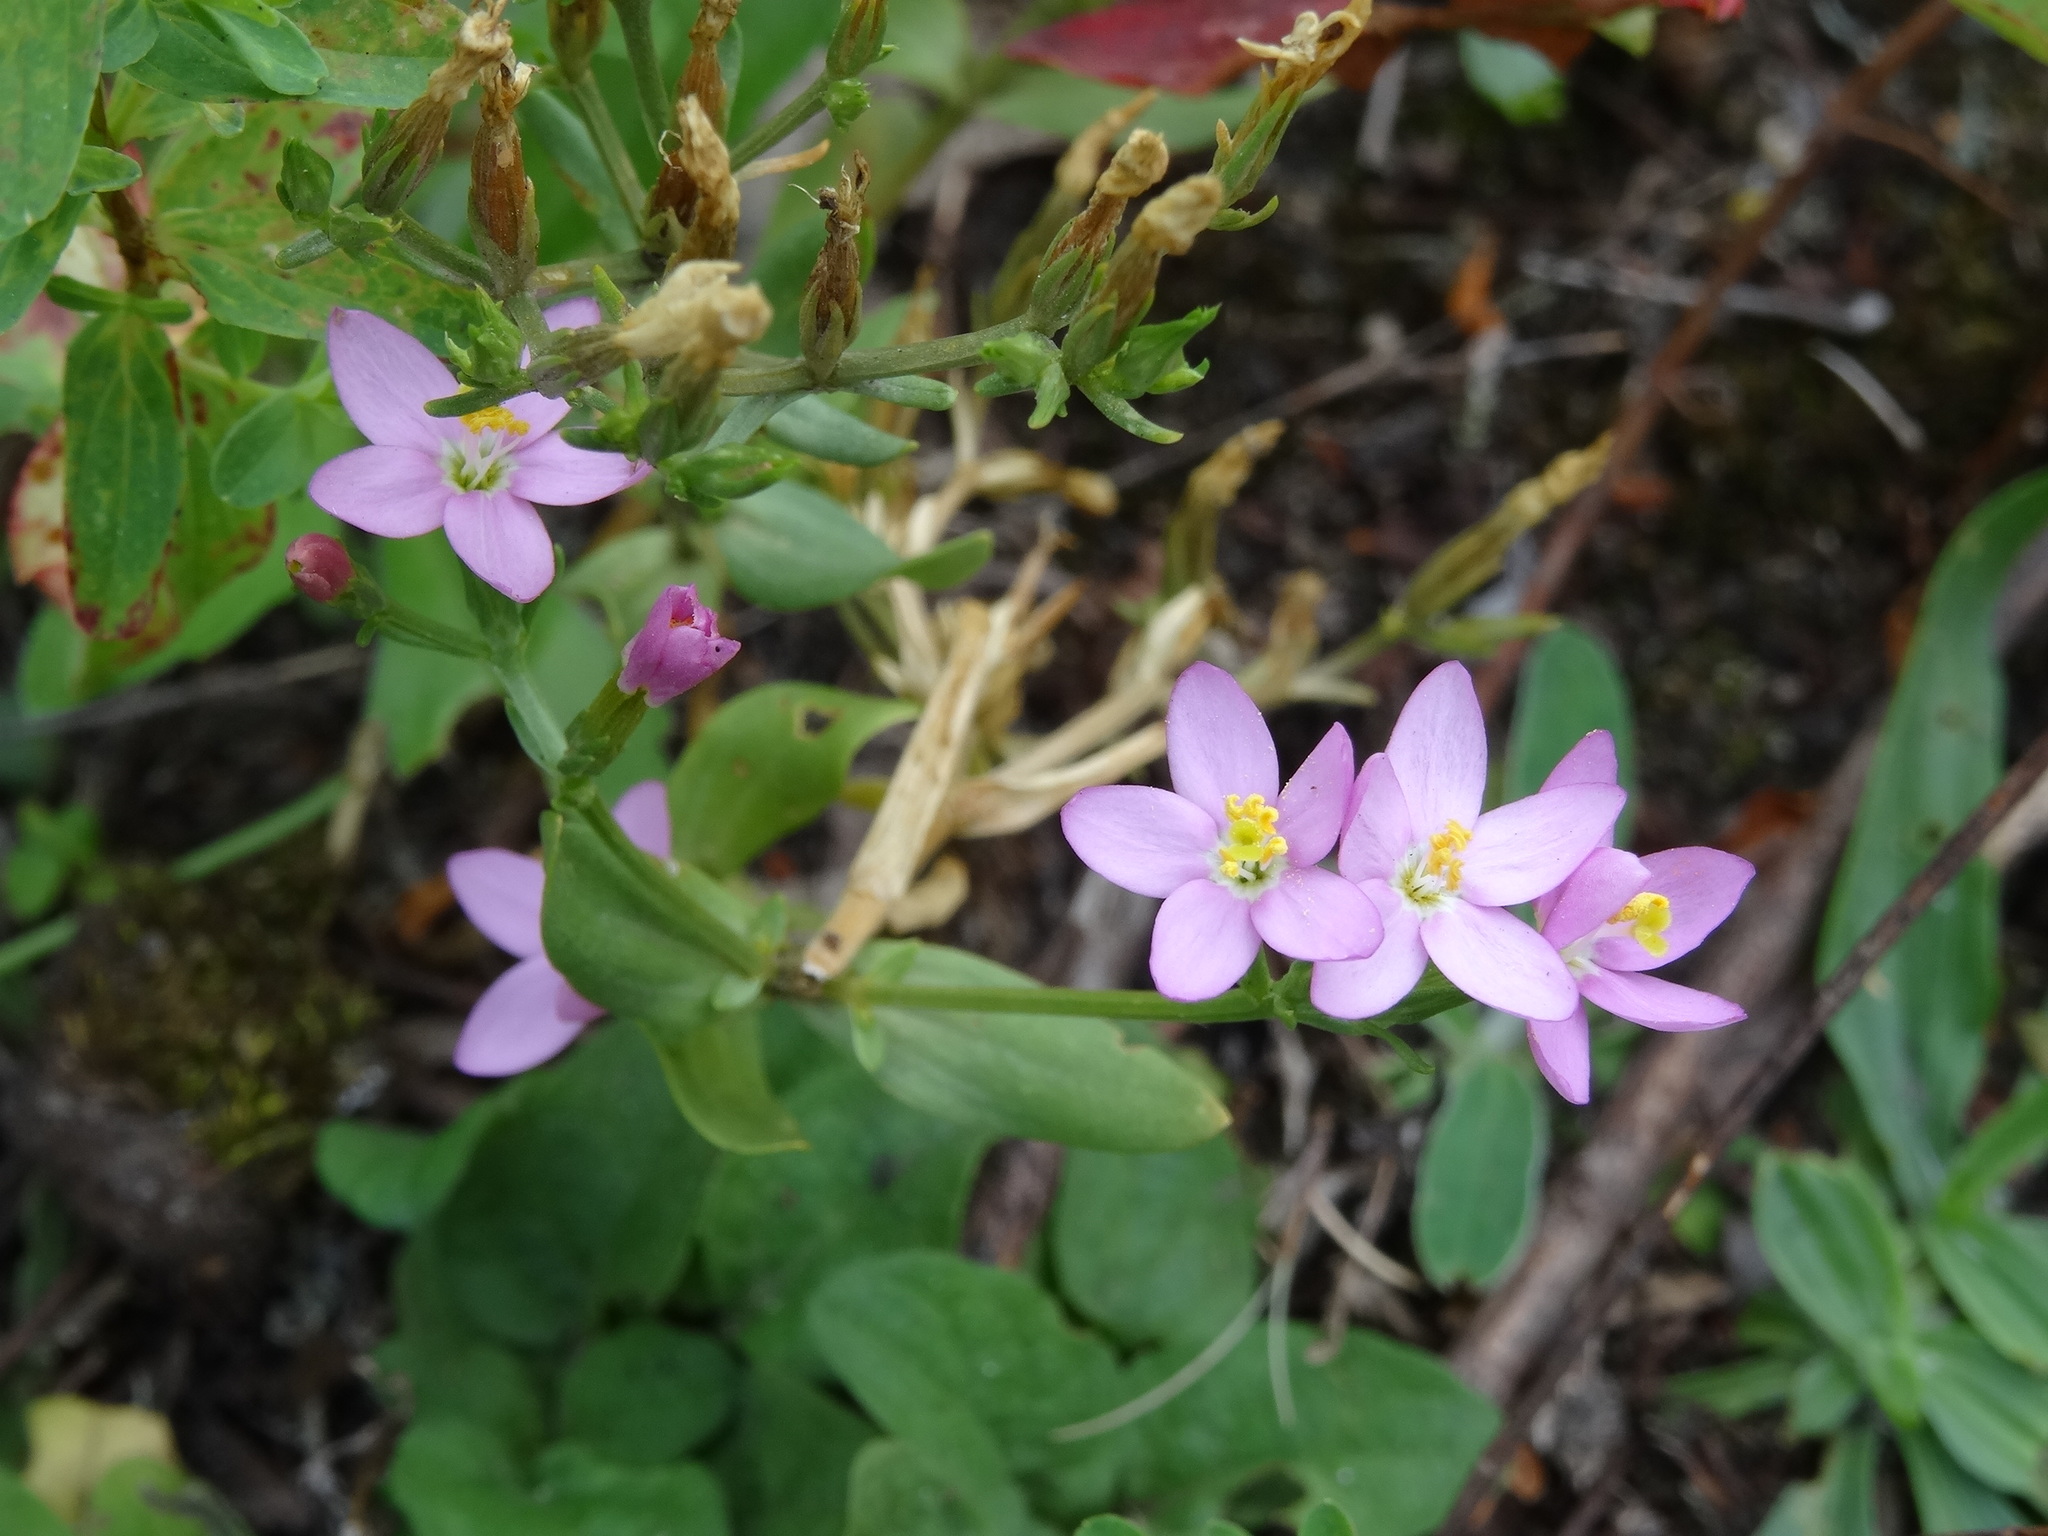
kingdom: Plantae
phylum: Tracheophyta
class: Magnoliopsida
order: Gentianales
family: Gentianaceae
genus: Centaurium
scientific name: Centaurium erythraea
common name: Common centaury
